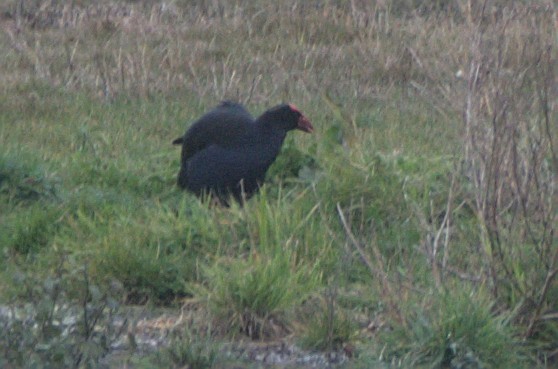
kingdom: Animalia
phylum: Chordata
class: Aves
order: Gruiformes
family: Rallidae
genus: Porphyrio
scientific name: Porphyrio melanotus
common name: Australasian swamphen
